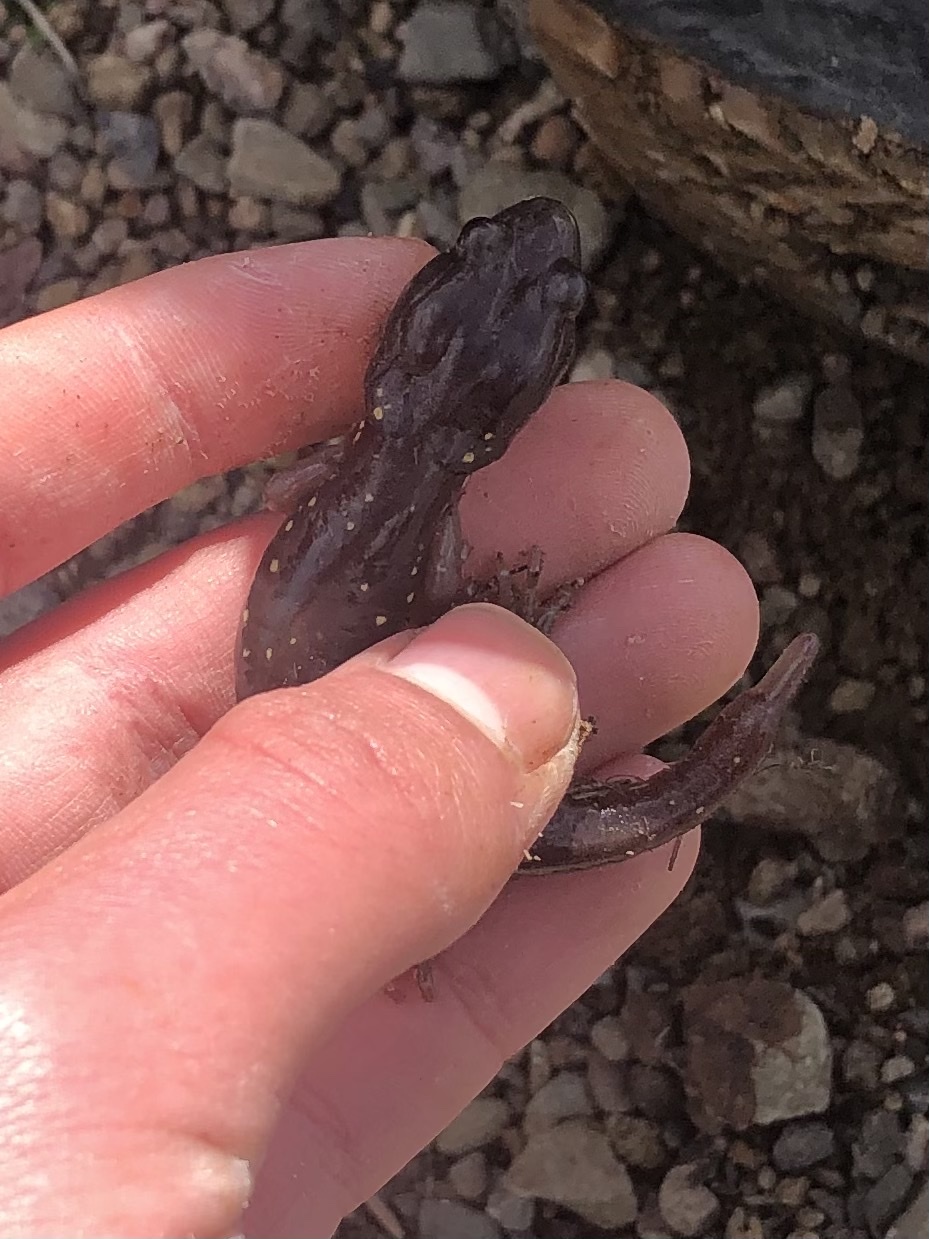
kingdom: Animalia
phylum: Chordata
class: Amphibia
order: Caudata
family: Plethodontidae
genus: Aneides
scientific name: Aneides lugubris
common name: Arboreal salamander
